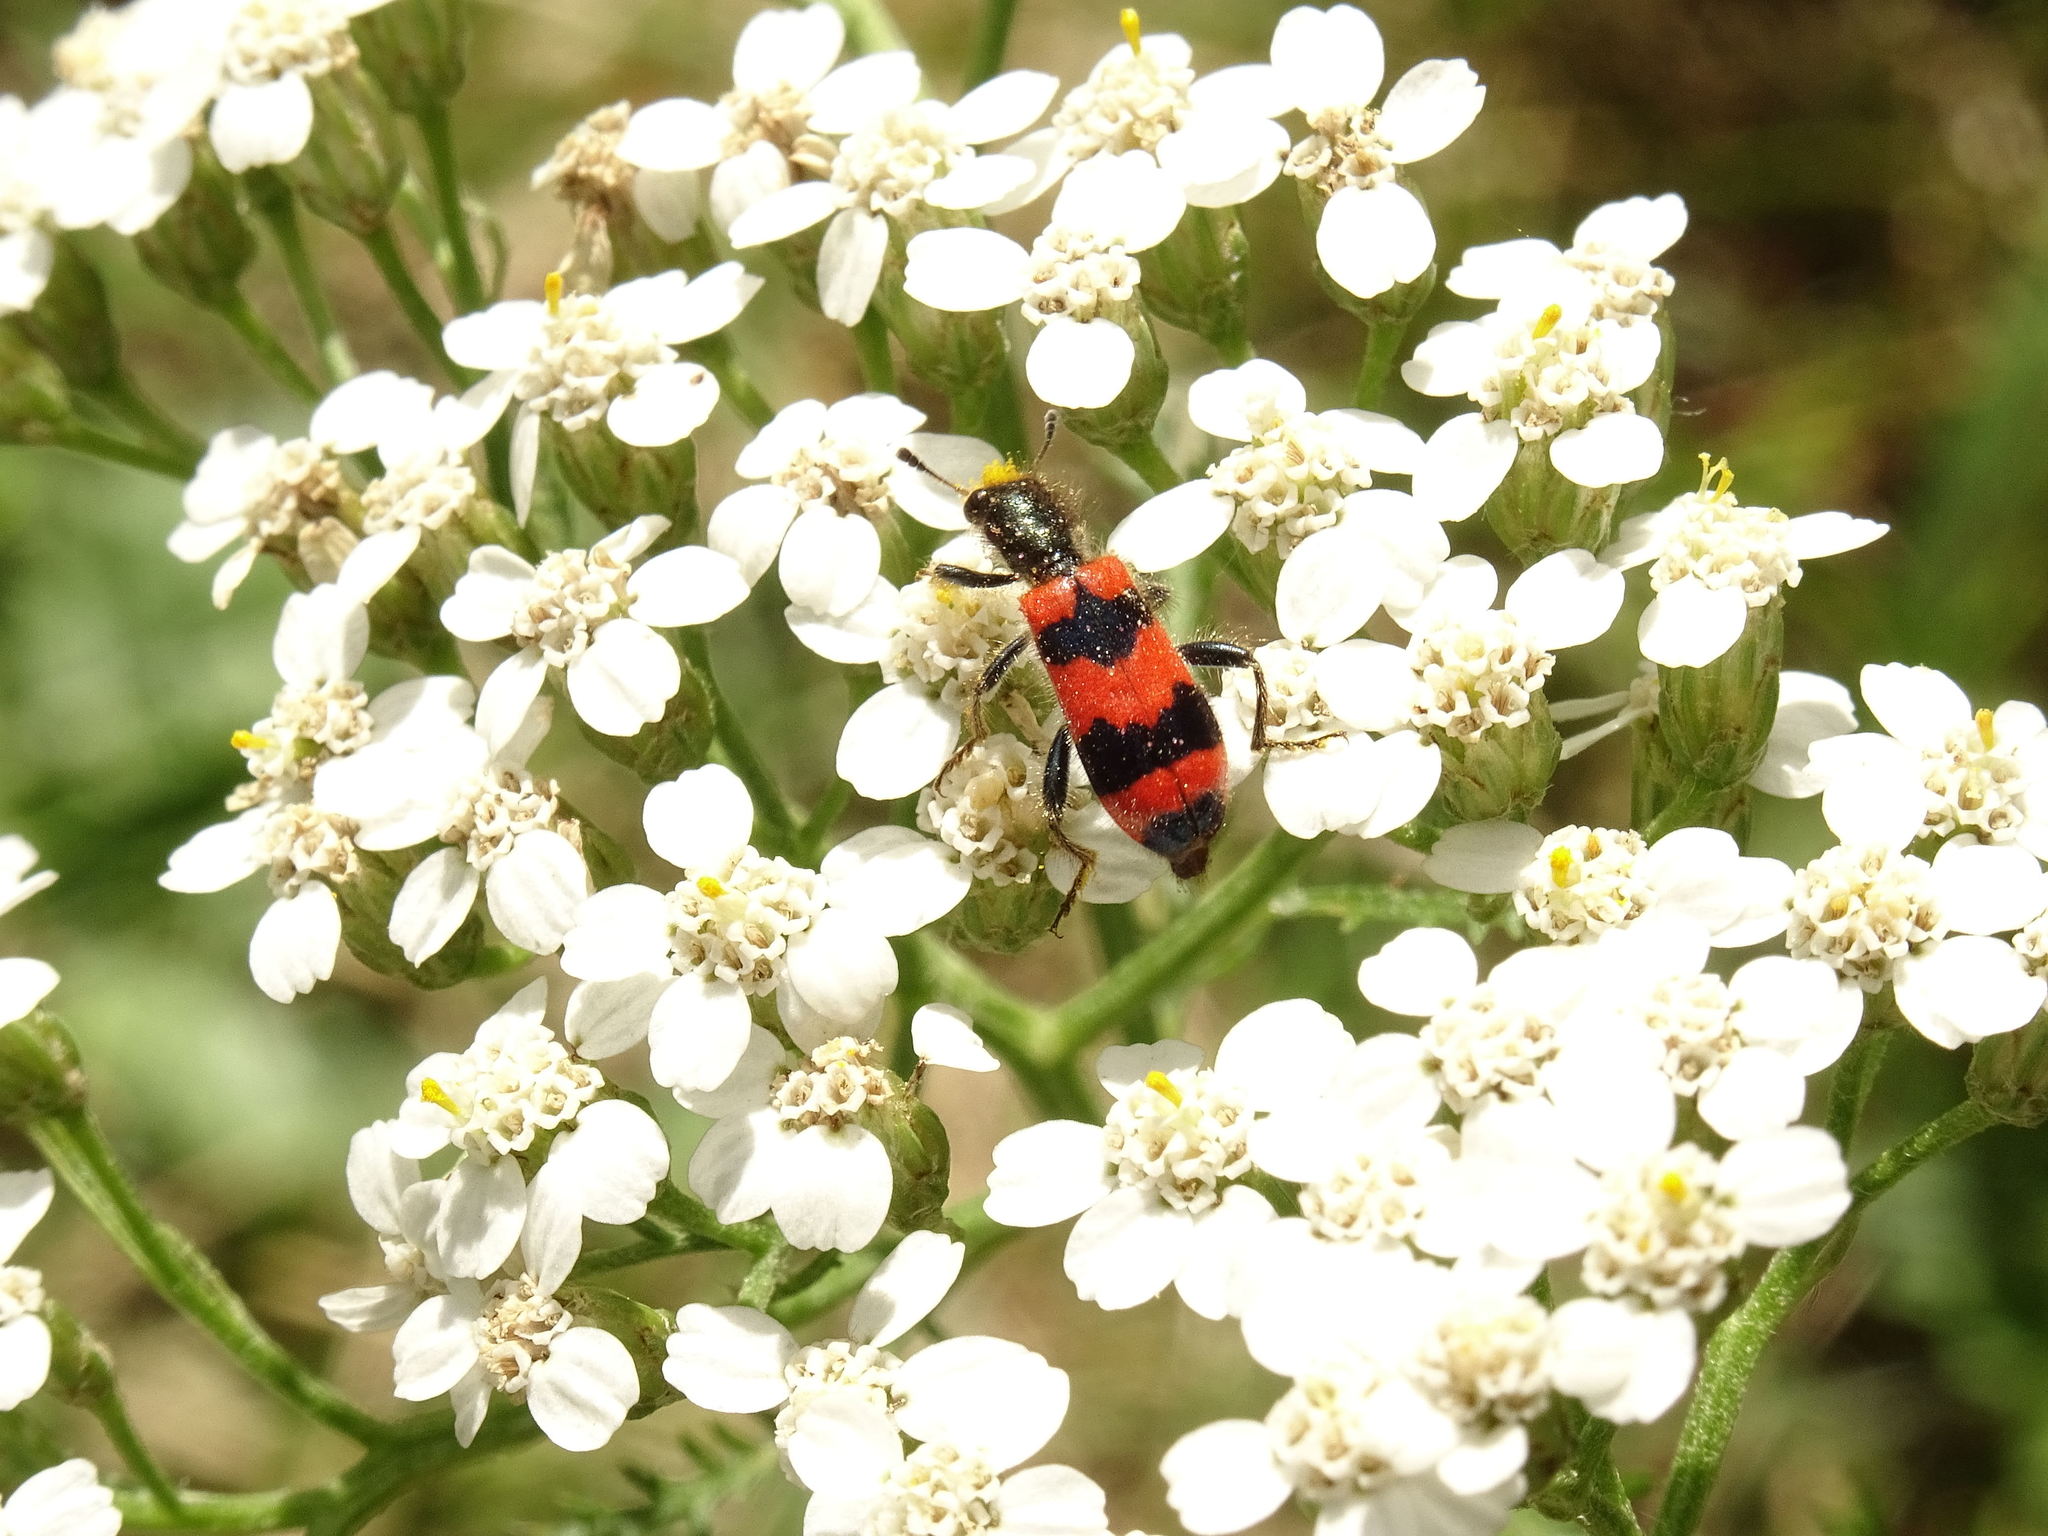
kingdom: Animalia
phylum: Arthropoda
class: Insecta
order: Coleoptera
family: Cleridae
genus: Trichodes
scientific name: Trichodes apiarius
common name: Bee-eating beetle
